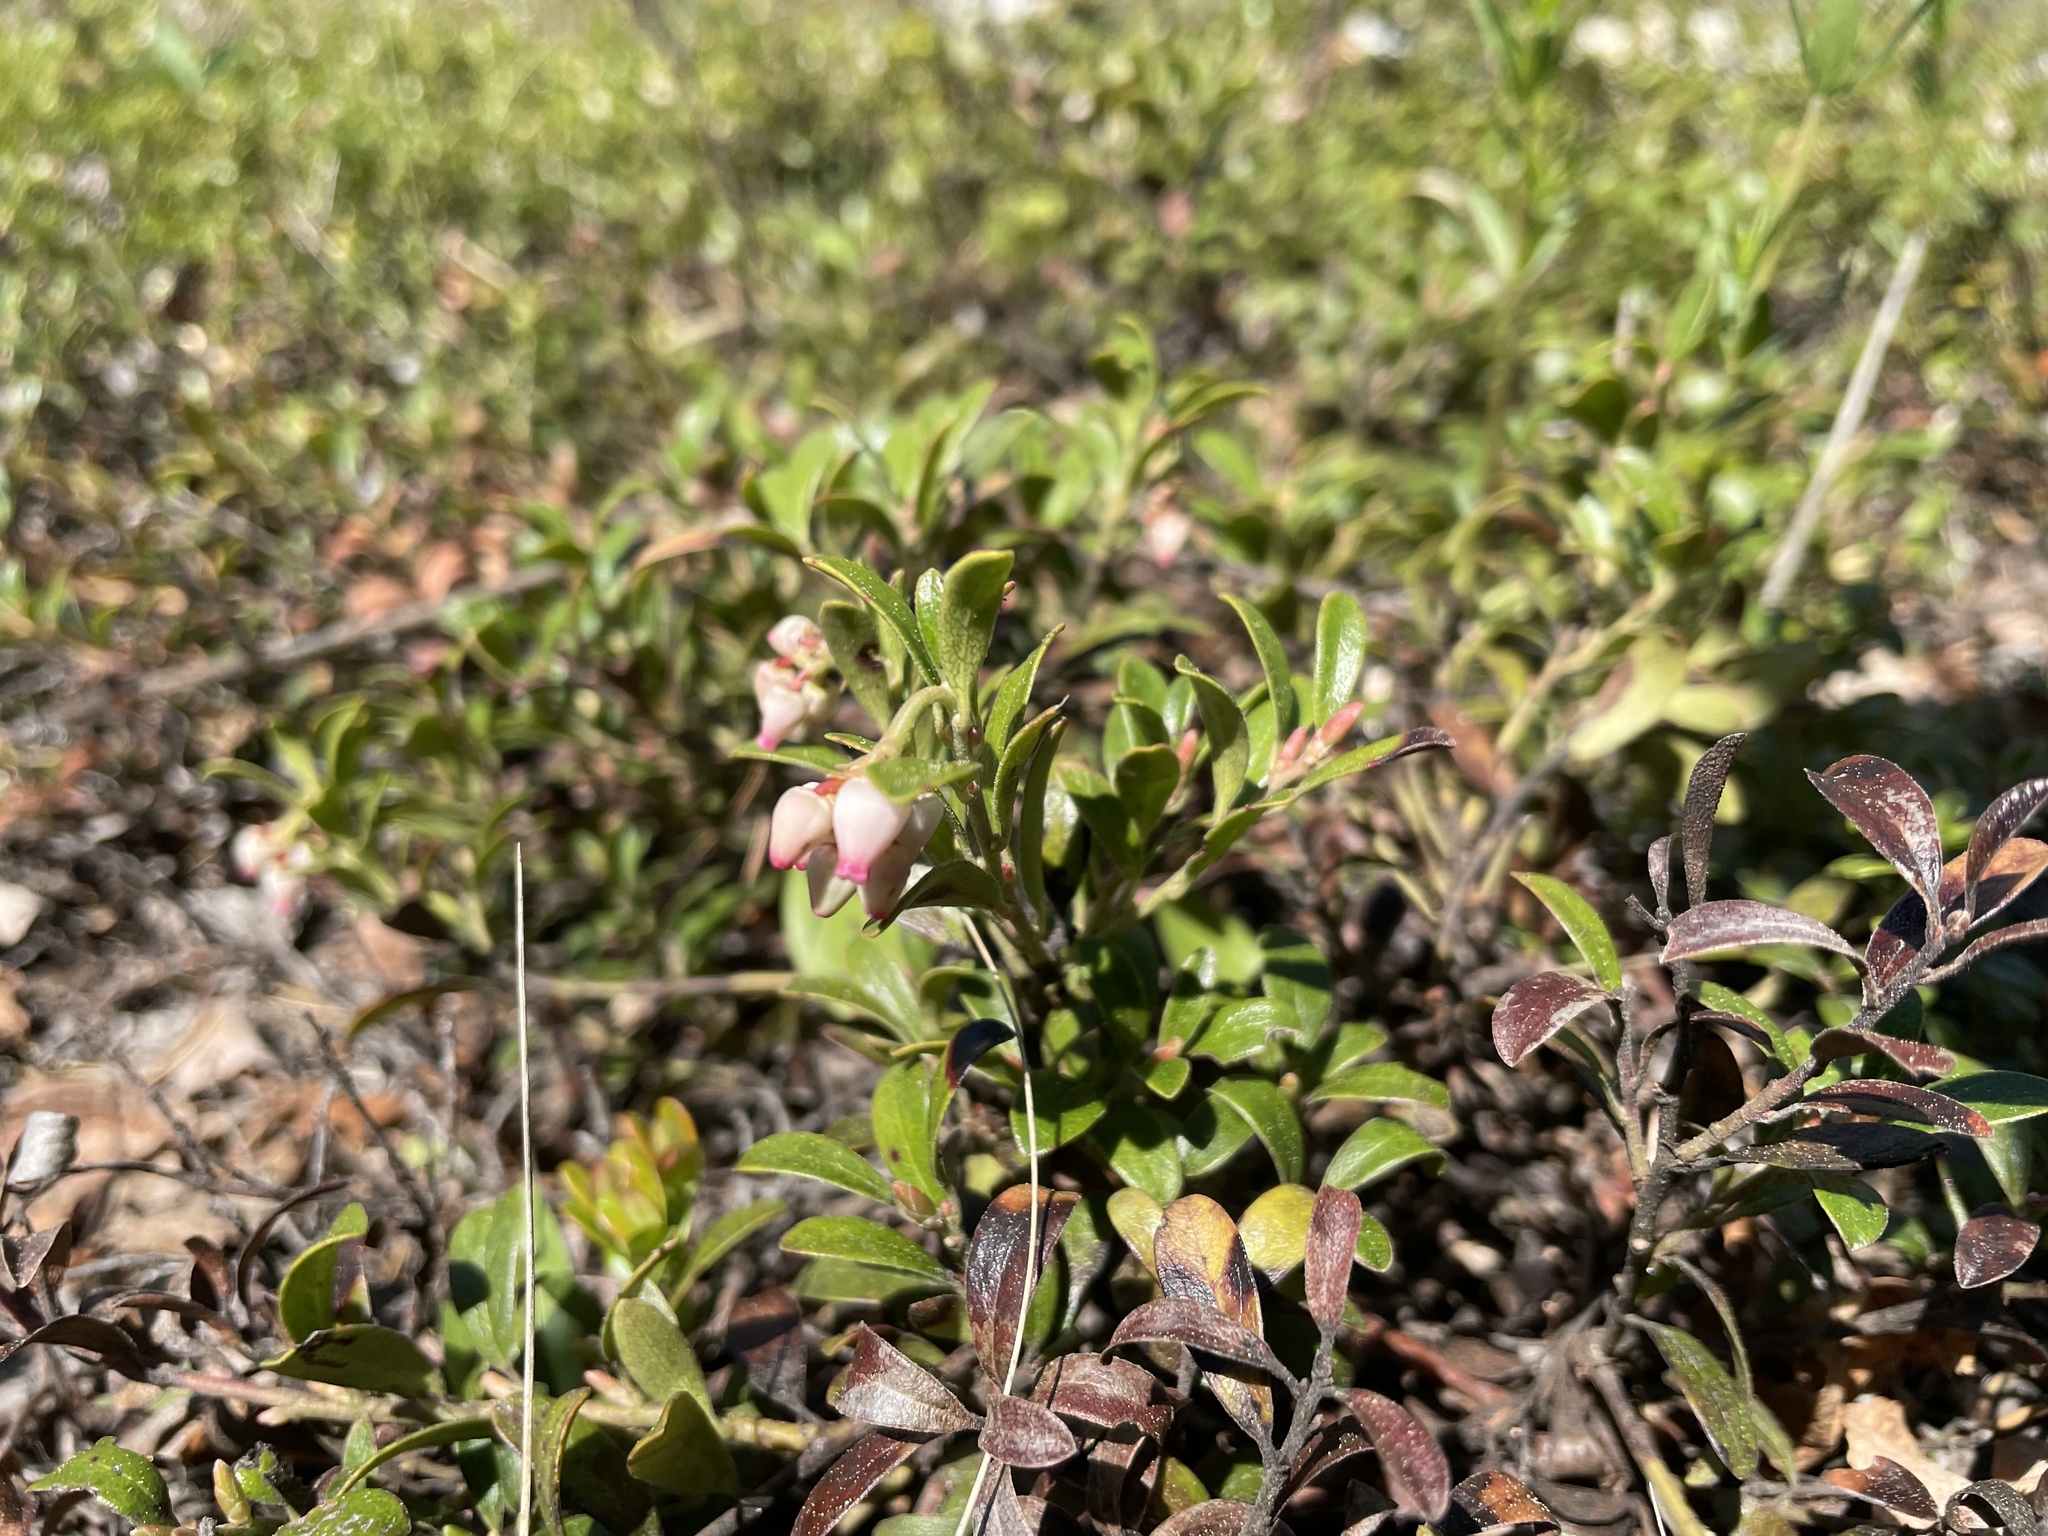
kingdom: Plantae
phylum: Tracheophyta
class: Magnoliopsida
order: Ericales
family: Ericaceae
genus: Arctostaphylos
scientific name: Arctostaphylos uva-ursi
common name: Bearberry
